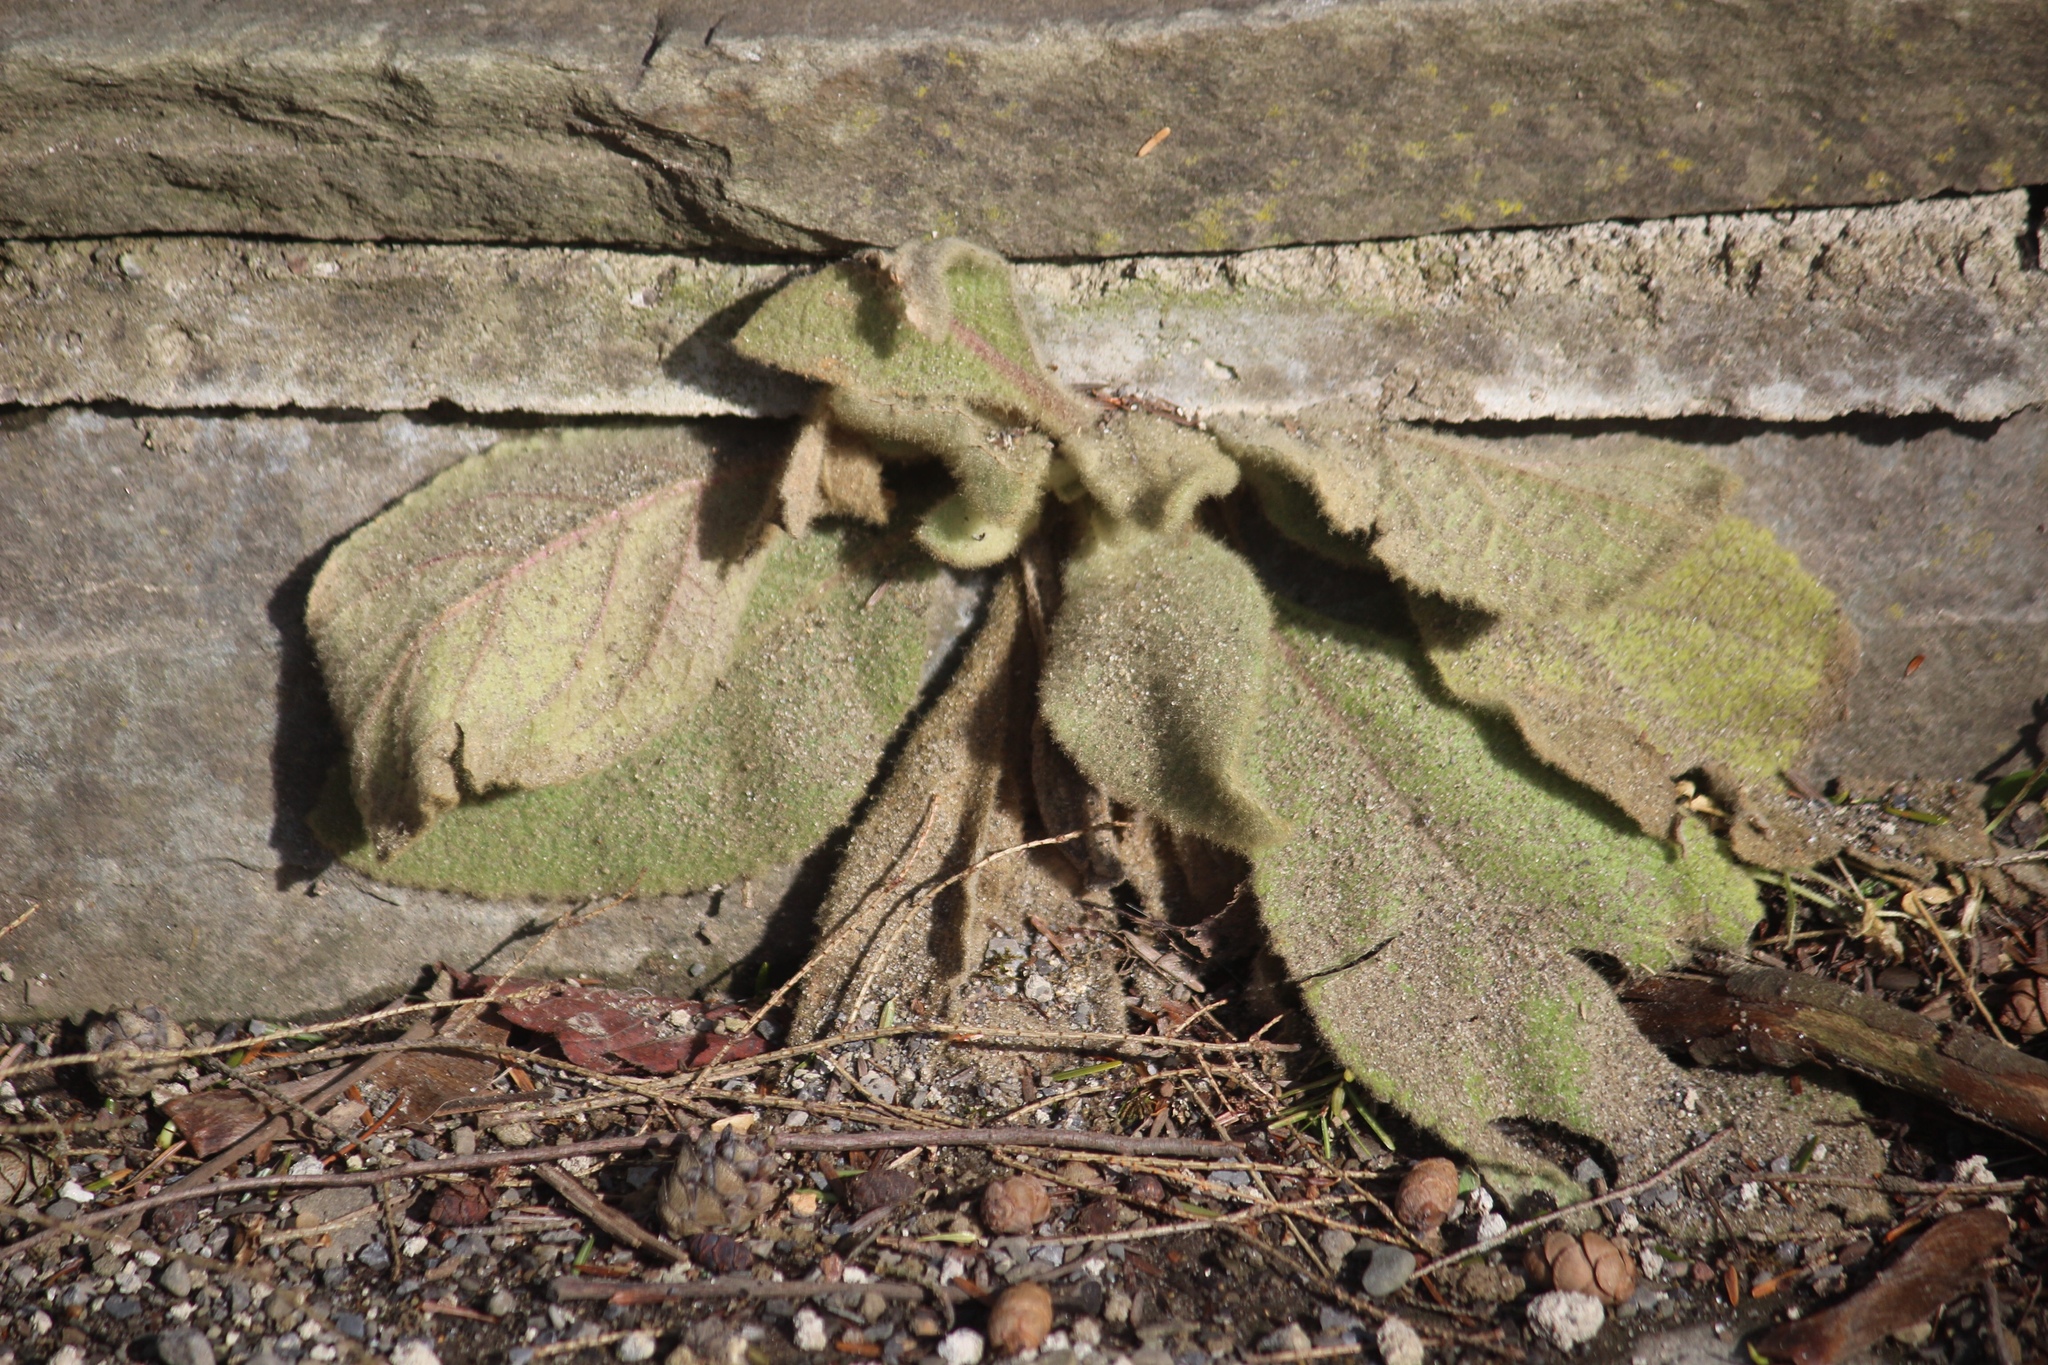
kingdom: Plantae
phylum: Tracheophyta
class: Magnoliopsida
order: Lamiales
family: Scrophulariaceae
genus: Verbascum
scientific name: Verbascum thapsus
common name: Common mullein
